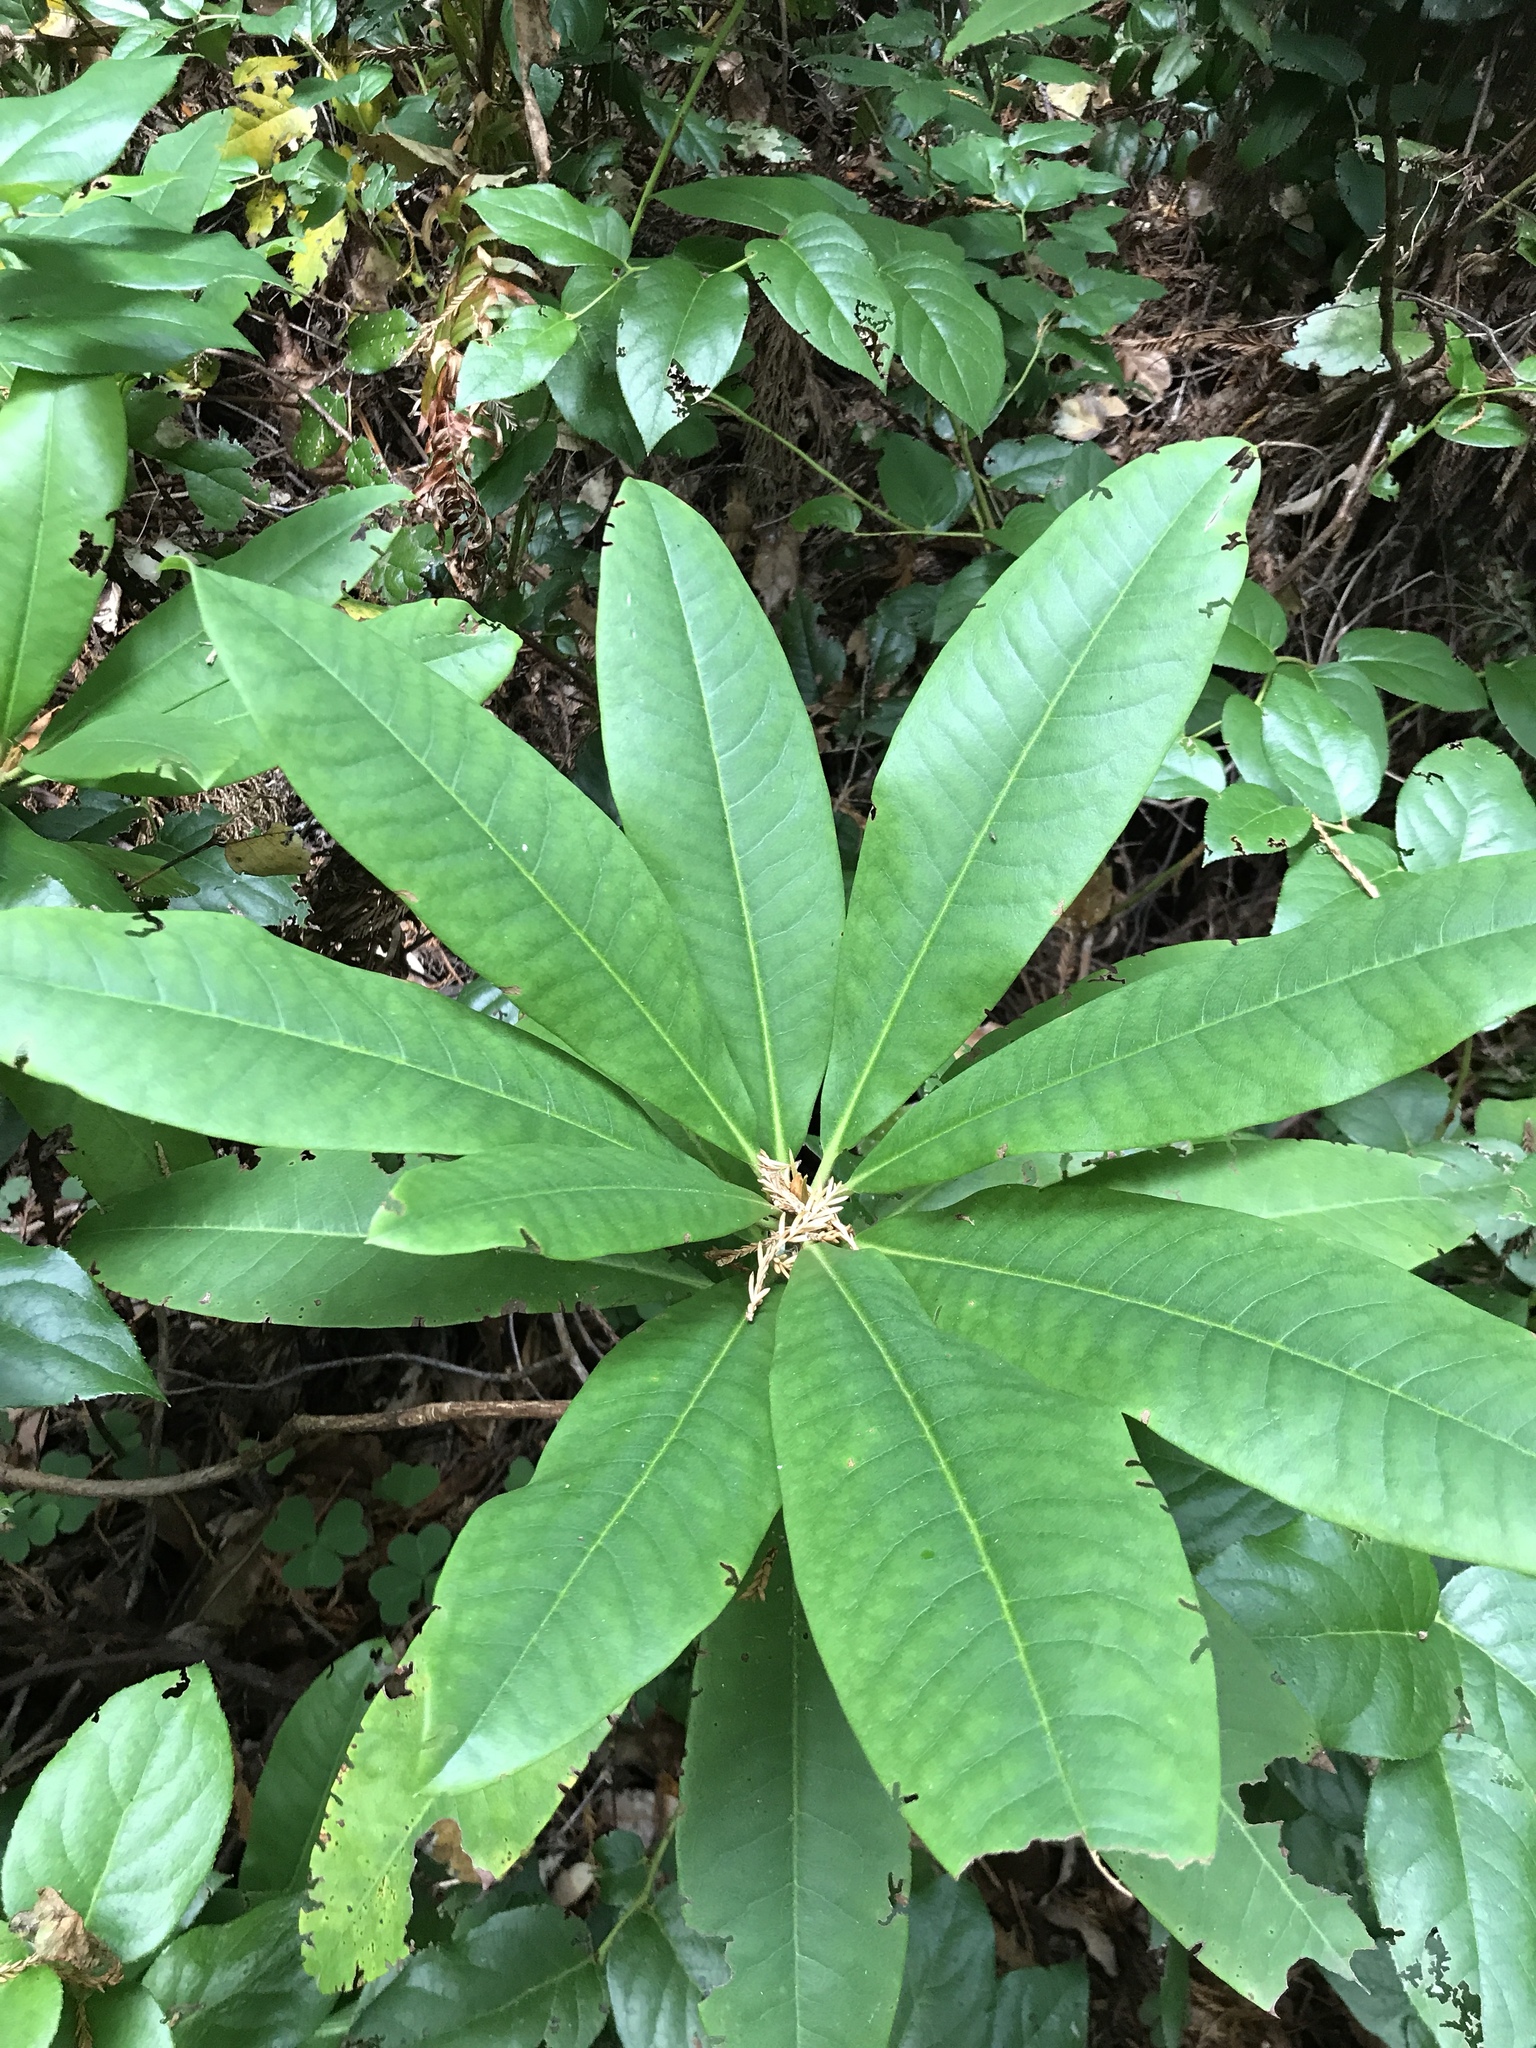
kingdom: Plantae
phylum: Tracheophyta
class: Magnoliopsida
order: Ericales
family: Ericaceae
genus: Rhododendron
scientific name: Rhododendron macrophyllum
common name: California rose bay
